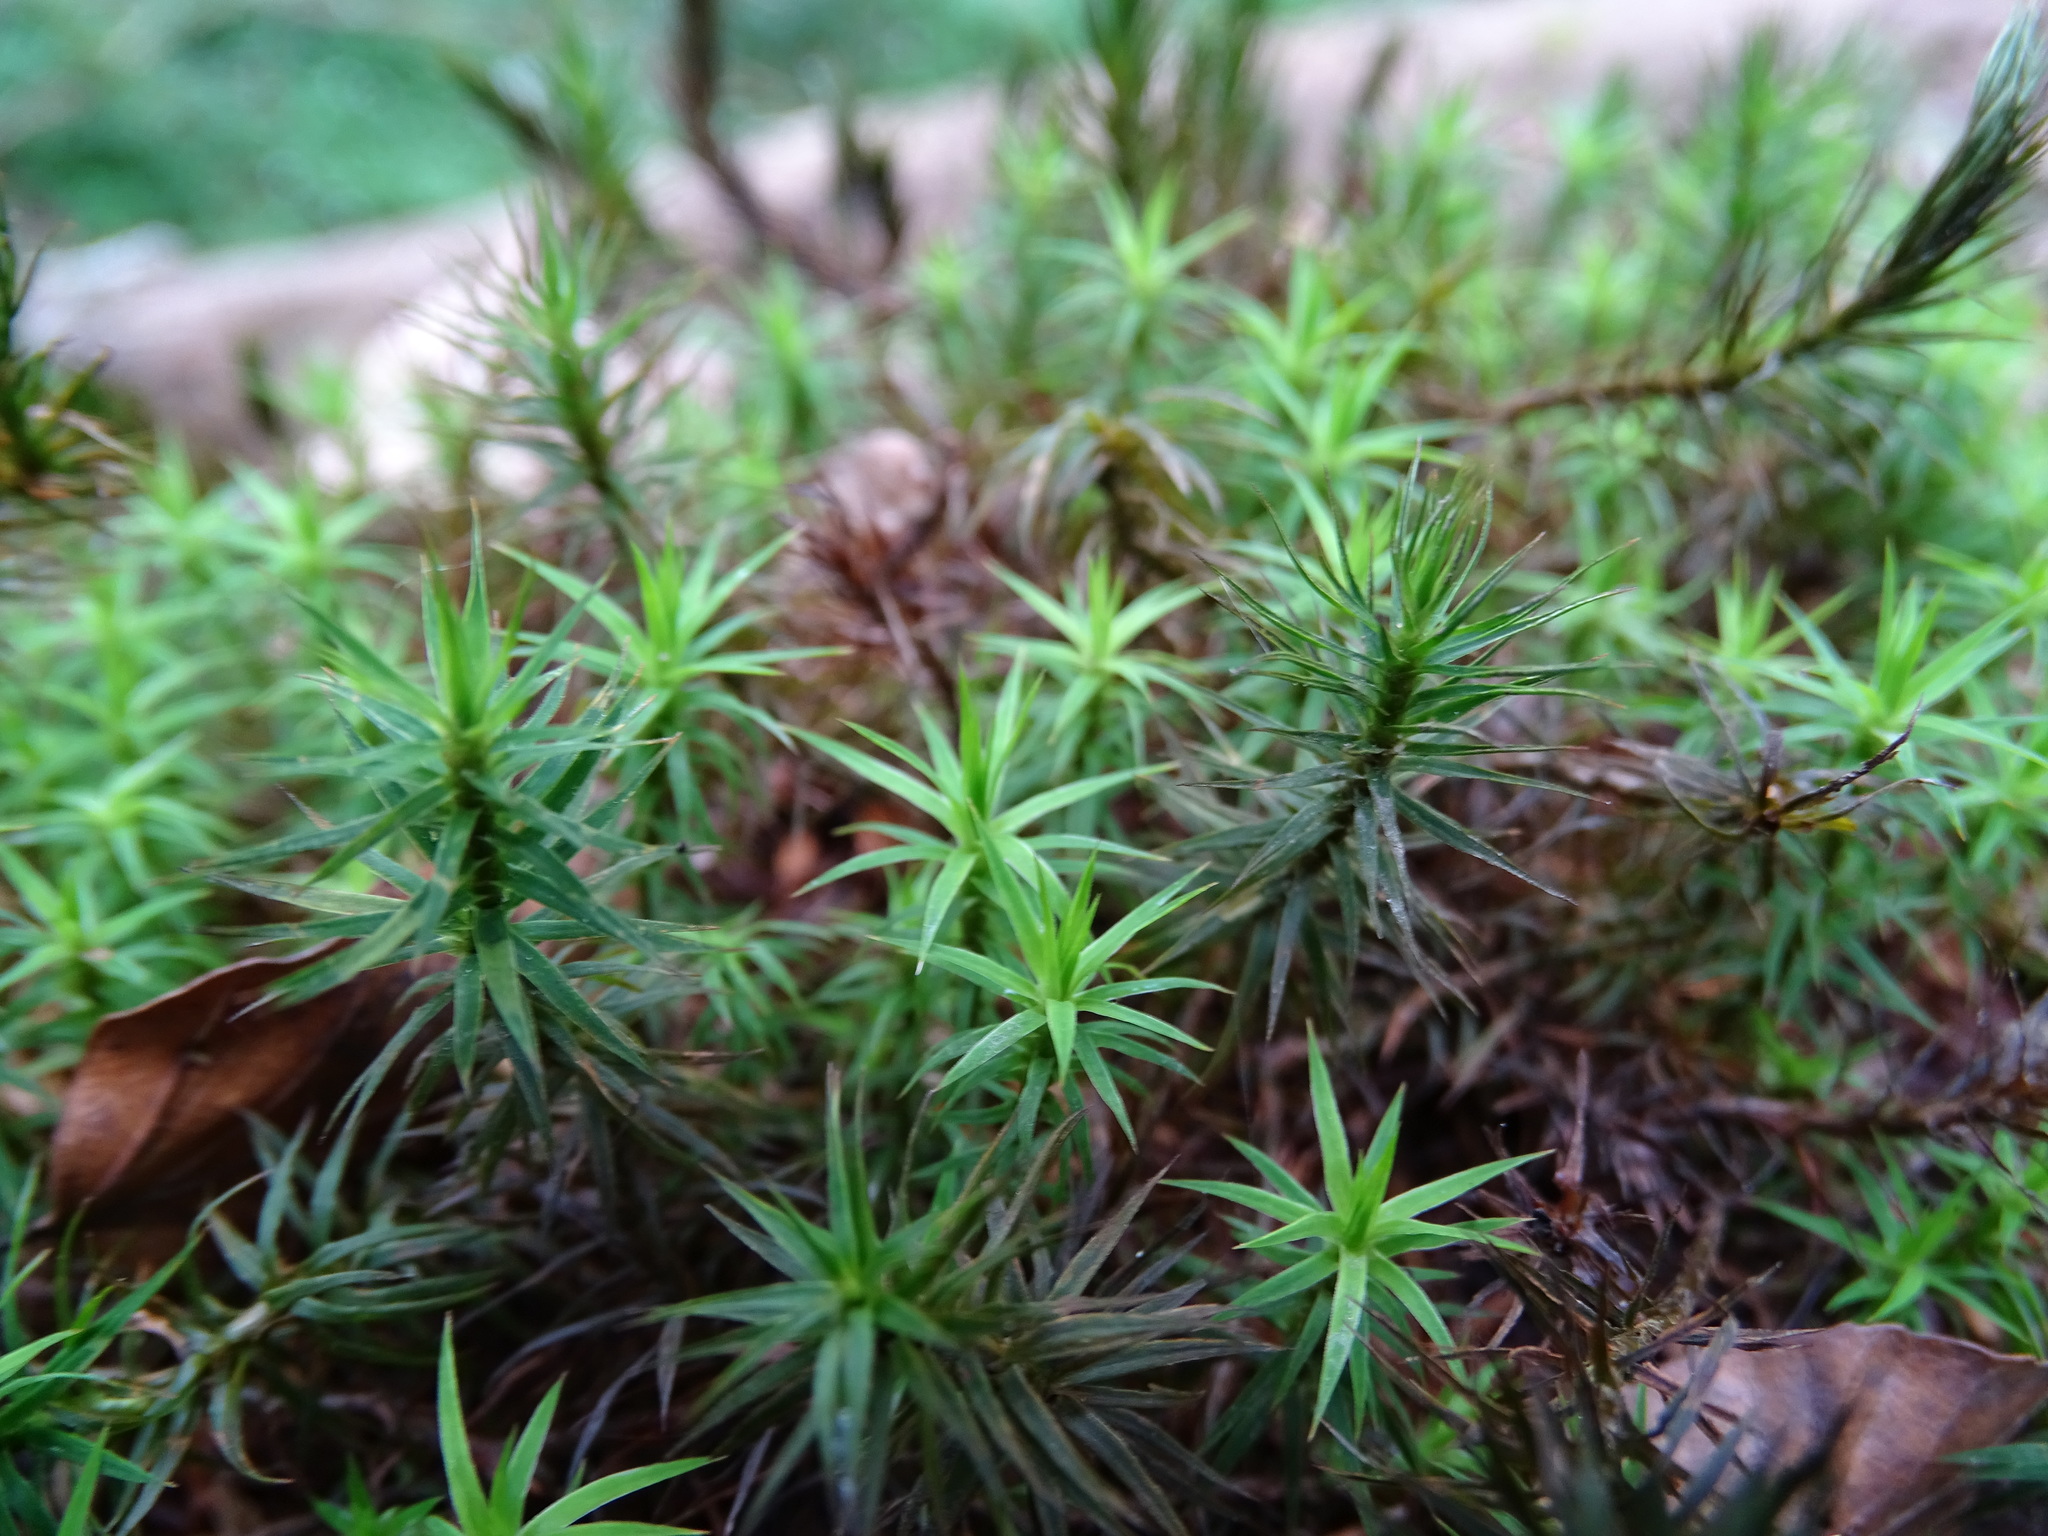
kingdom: Plantae
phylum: Bryophyta
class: Polytrichopsida
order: Polytrichales
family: Polytrichaceae
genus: Polytrichum
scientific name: Polytrichum formosum
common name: Bank haircap moss
